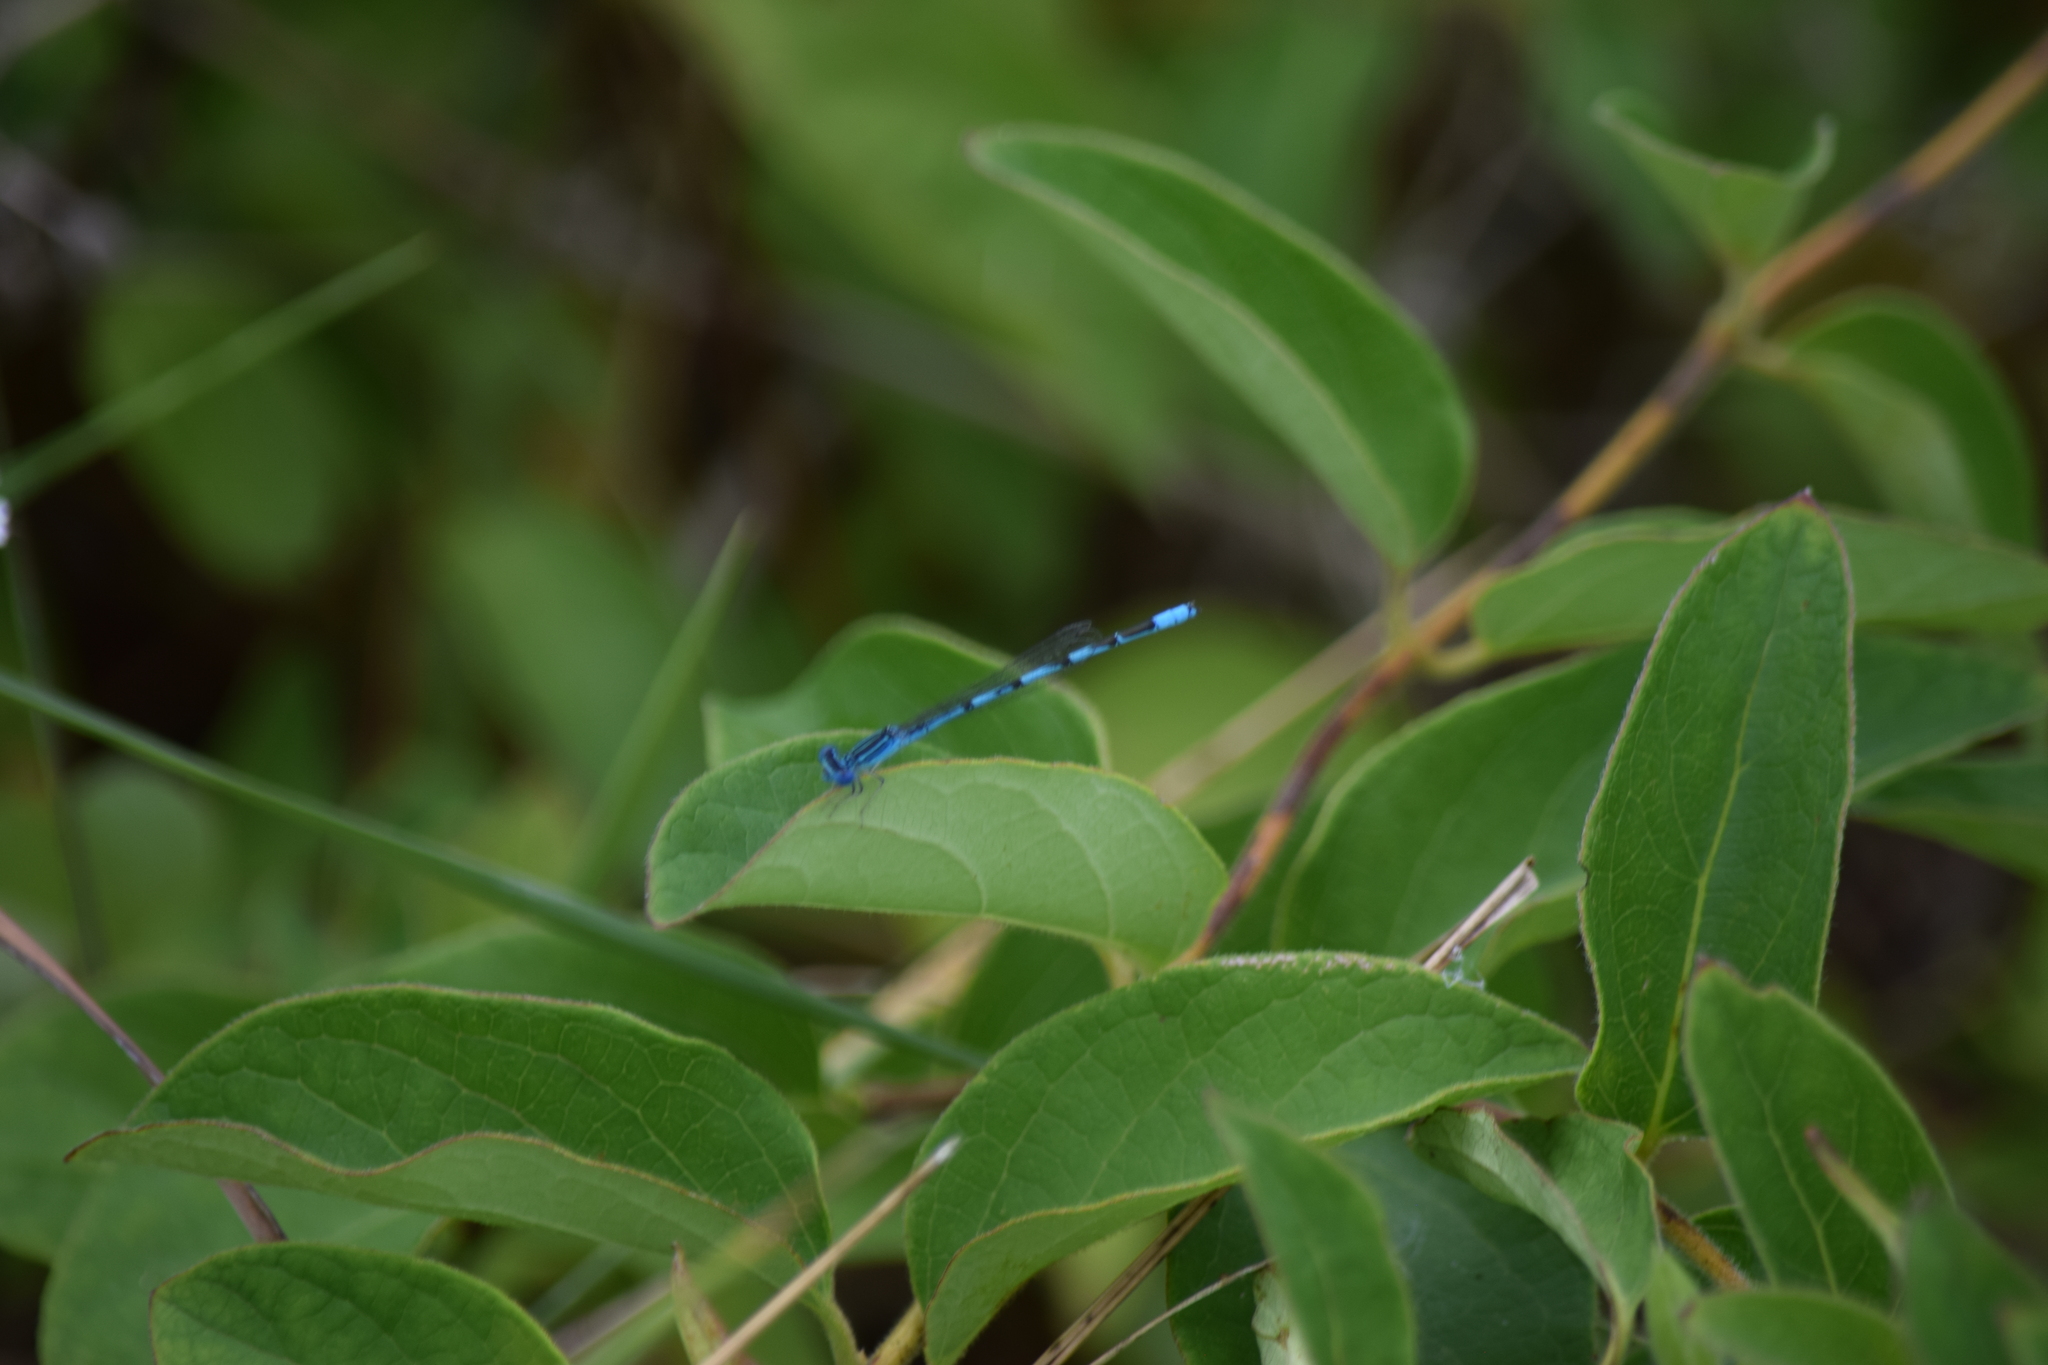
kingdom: Animalia
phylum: Arthropoda
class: Insecta
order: Odonata
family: Coenagrionidae
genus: Enallagma
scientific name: Enallagma basidens
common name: Double-striped bluet
